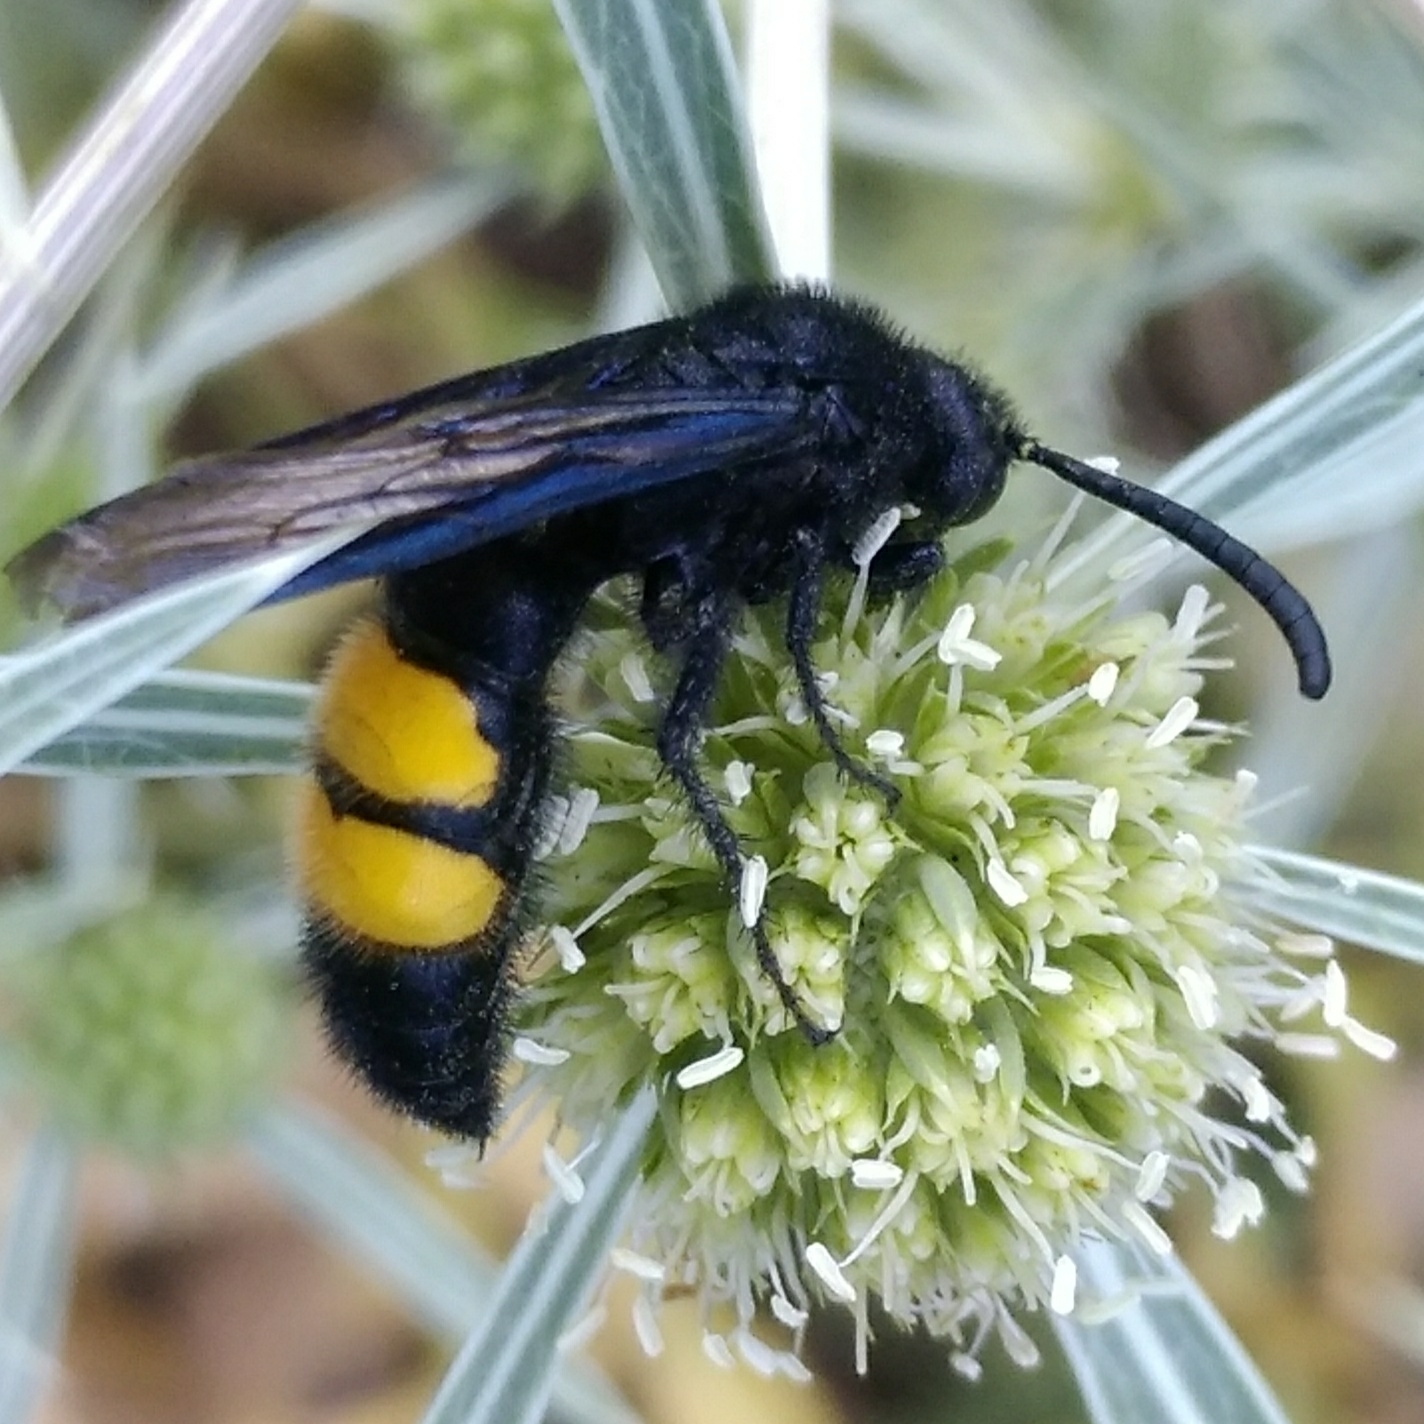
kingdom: Animalia
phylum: Arthropoda
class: Insecta
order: Hymenoptera
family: Scoliidae
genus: Scolia
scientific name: Scolia hirta
